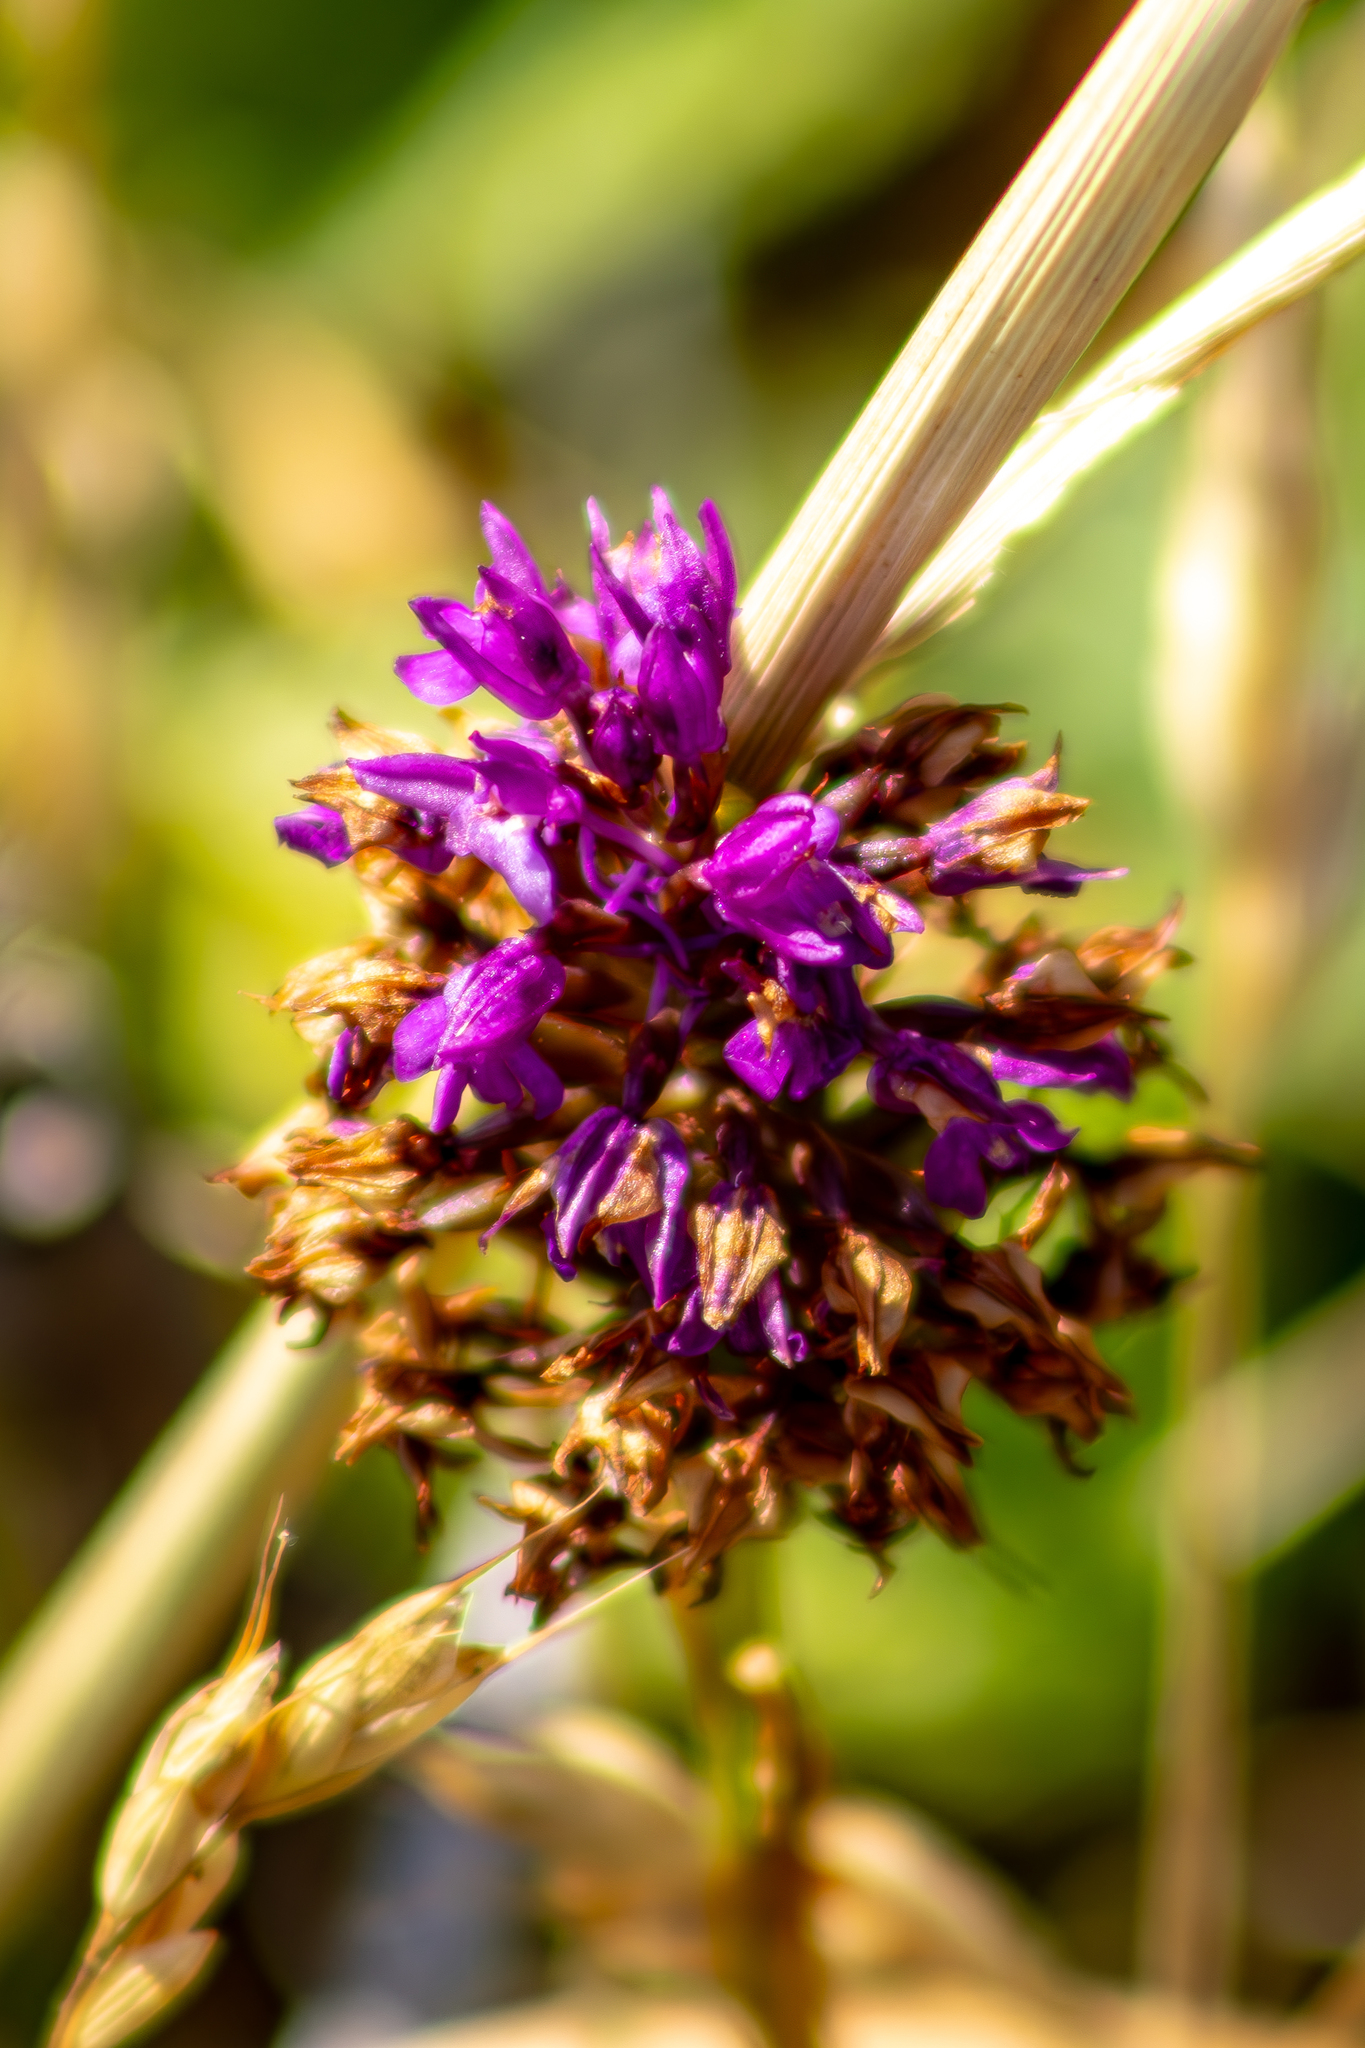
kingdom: Plantae
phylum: Tracheophyta
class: Liliopsida
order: Asparagales
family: Orchidaceae
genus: Anacamptis
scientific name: Anacamptis pyramidalis
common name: Pyramidal orchid
